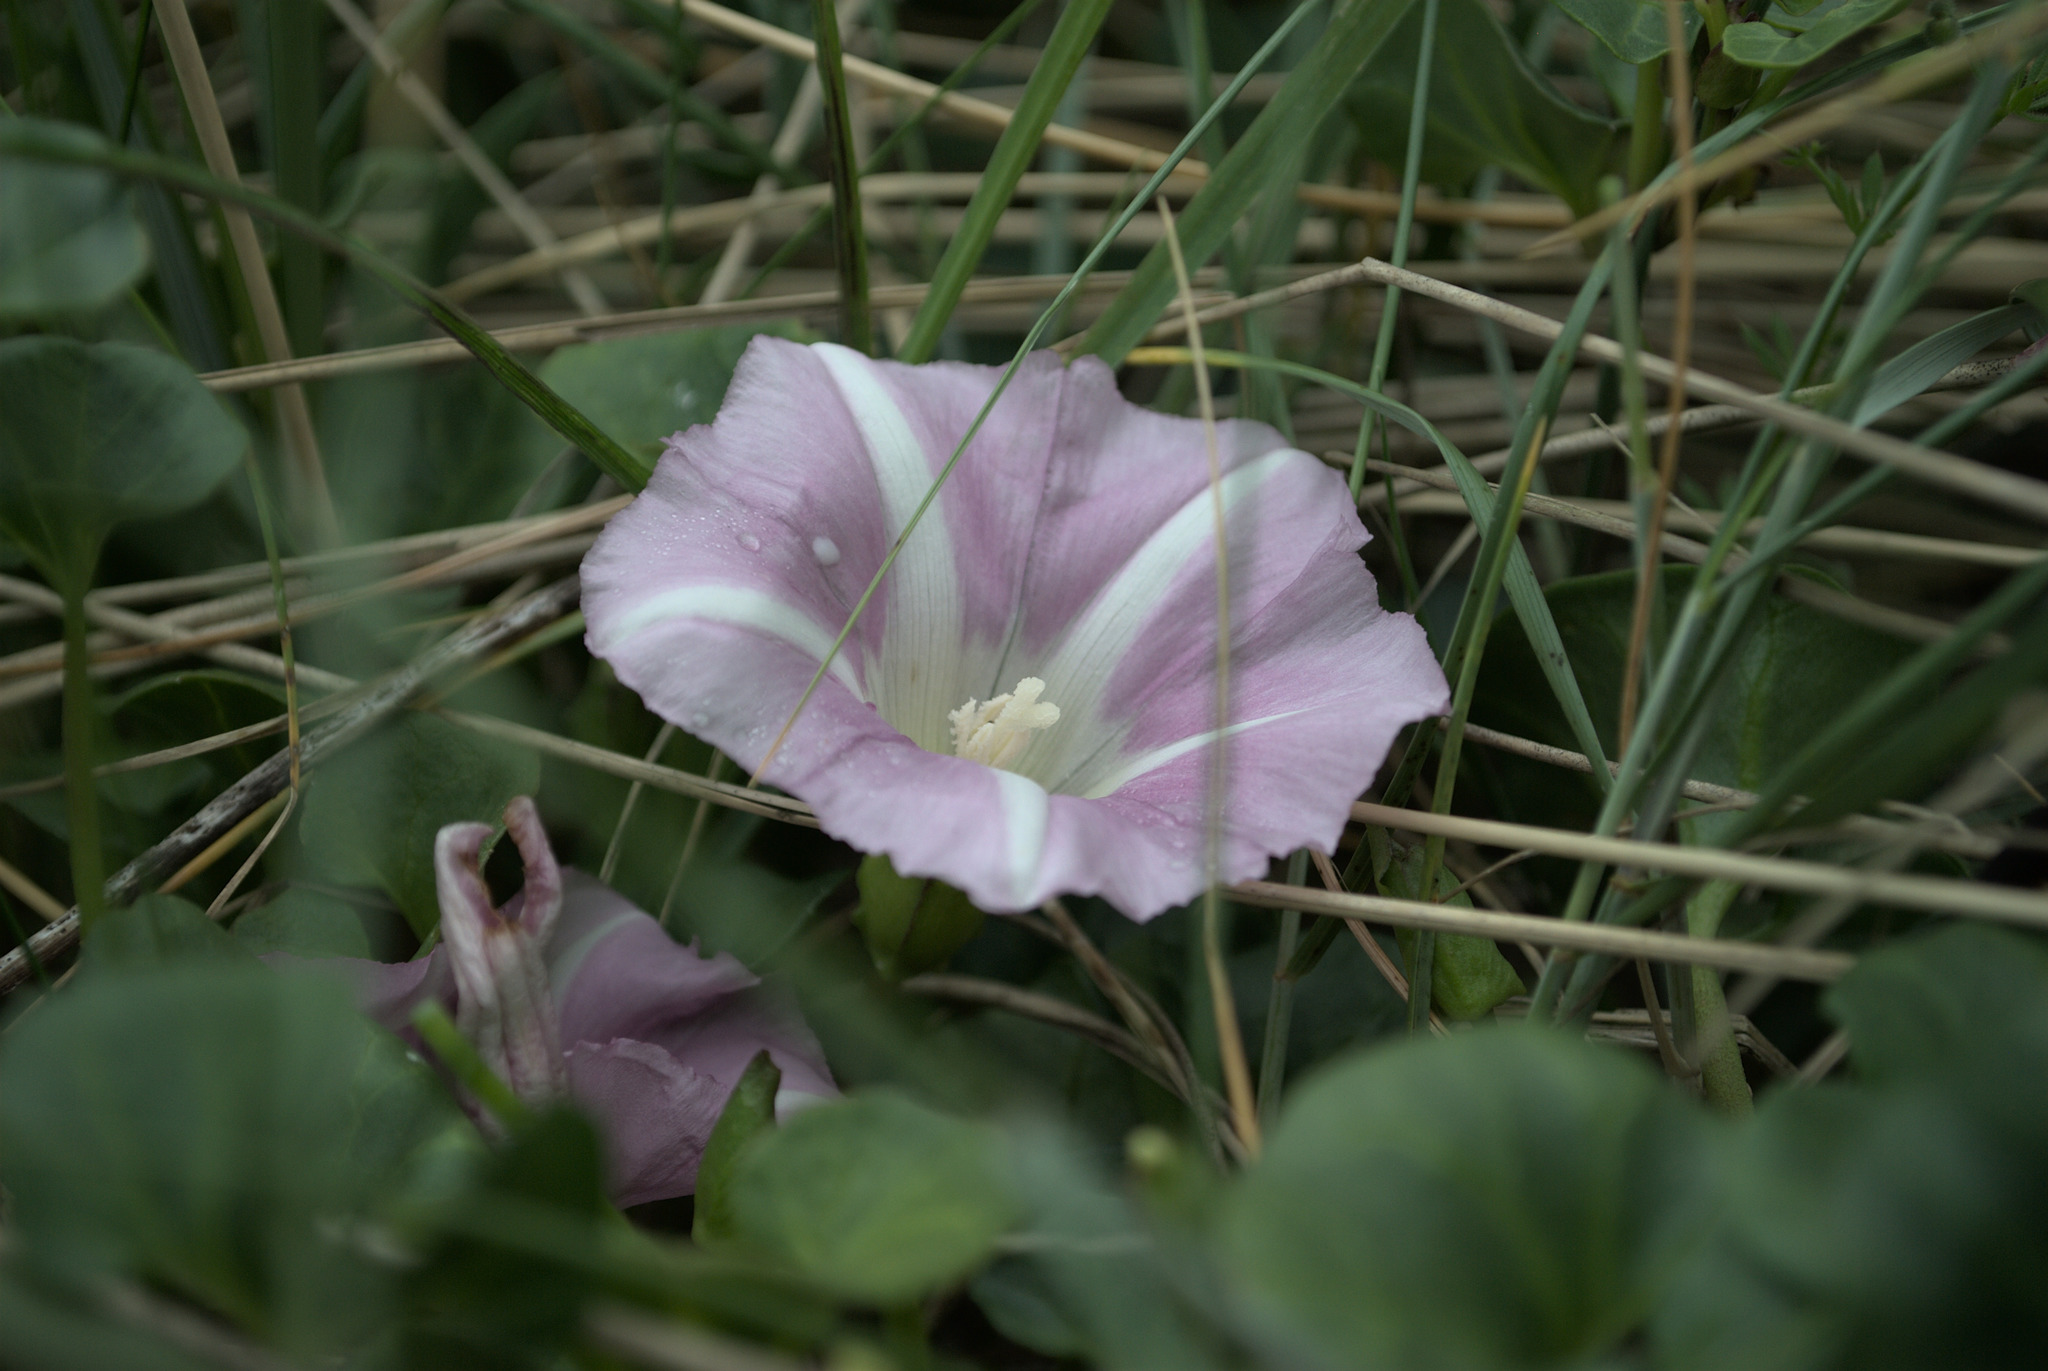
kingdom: Plantae
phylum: Tracheophyta
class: Magnoliopsida
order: Solanales
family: Convolvulaceae
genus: Calystegia
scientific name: Calystegia soldanella
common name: Sea bindweed
